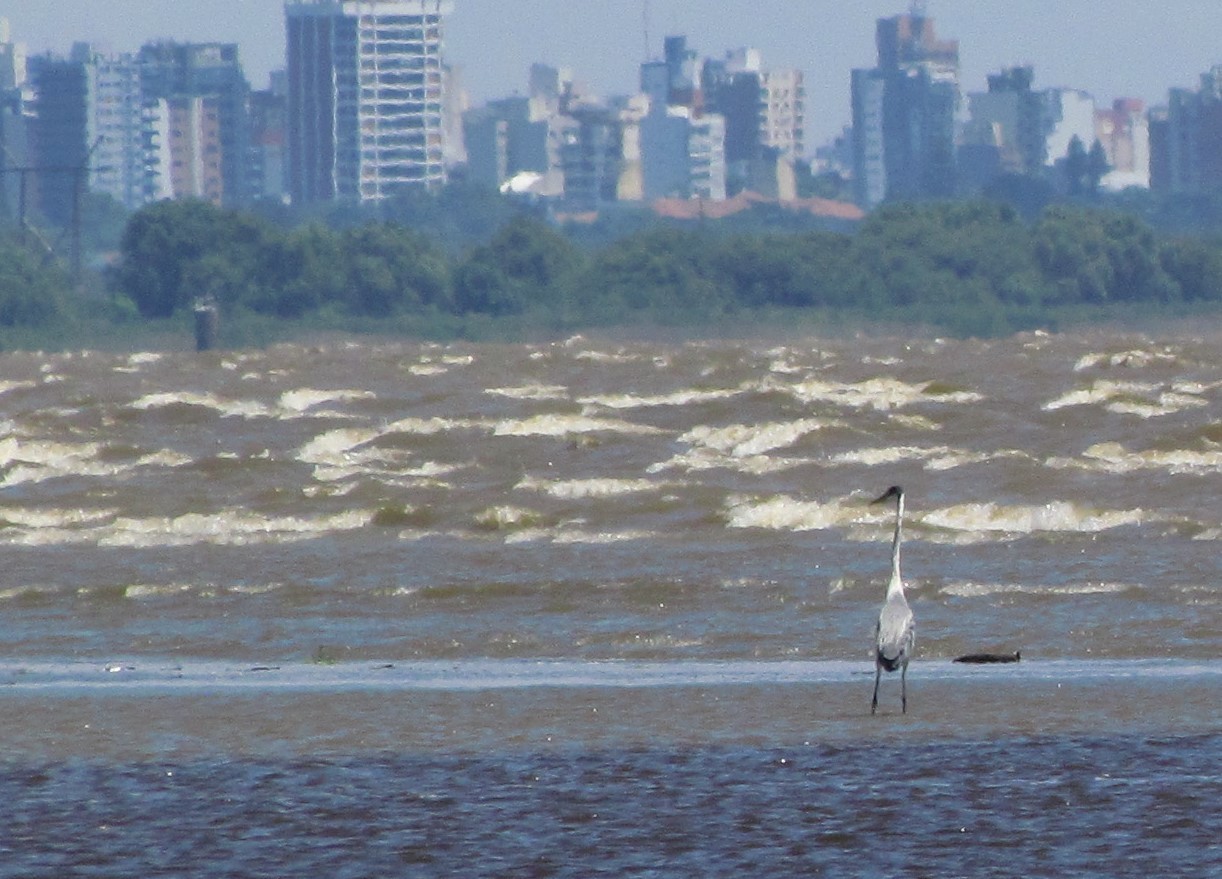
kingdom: Animalia
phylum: Chordata
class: Aves
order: Pelecaniformes
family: Ardeidae
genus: Ardea
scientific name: Ardea cocoi
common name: Cocoi heron
